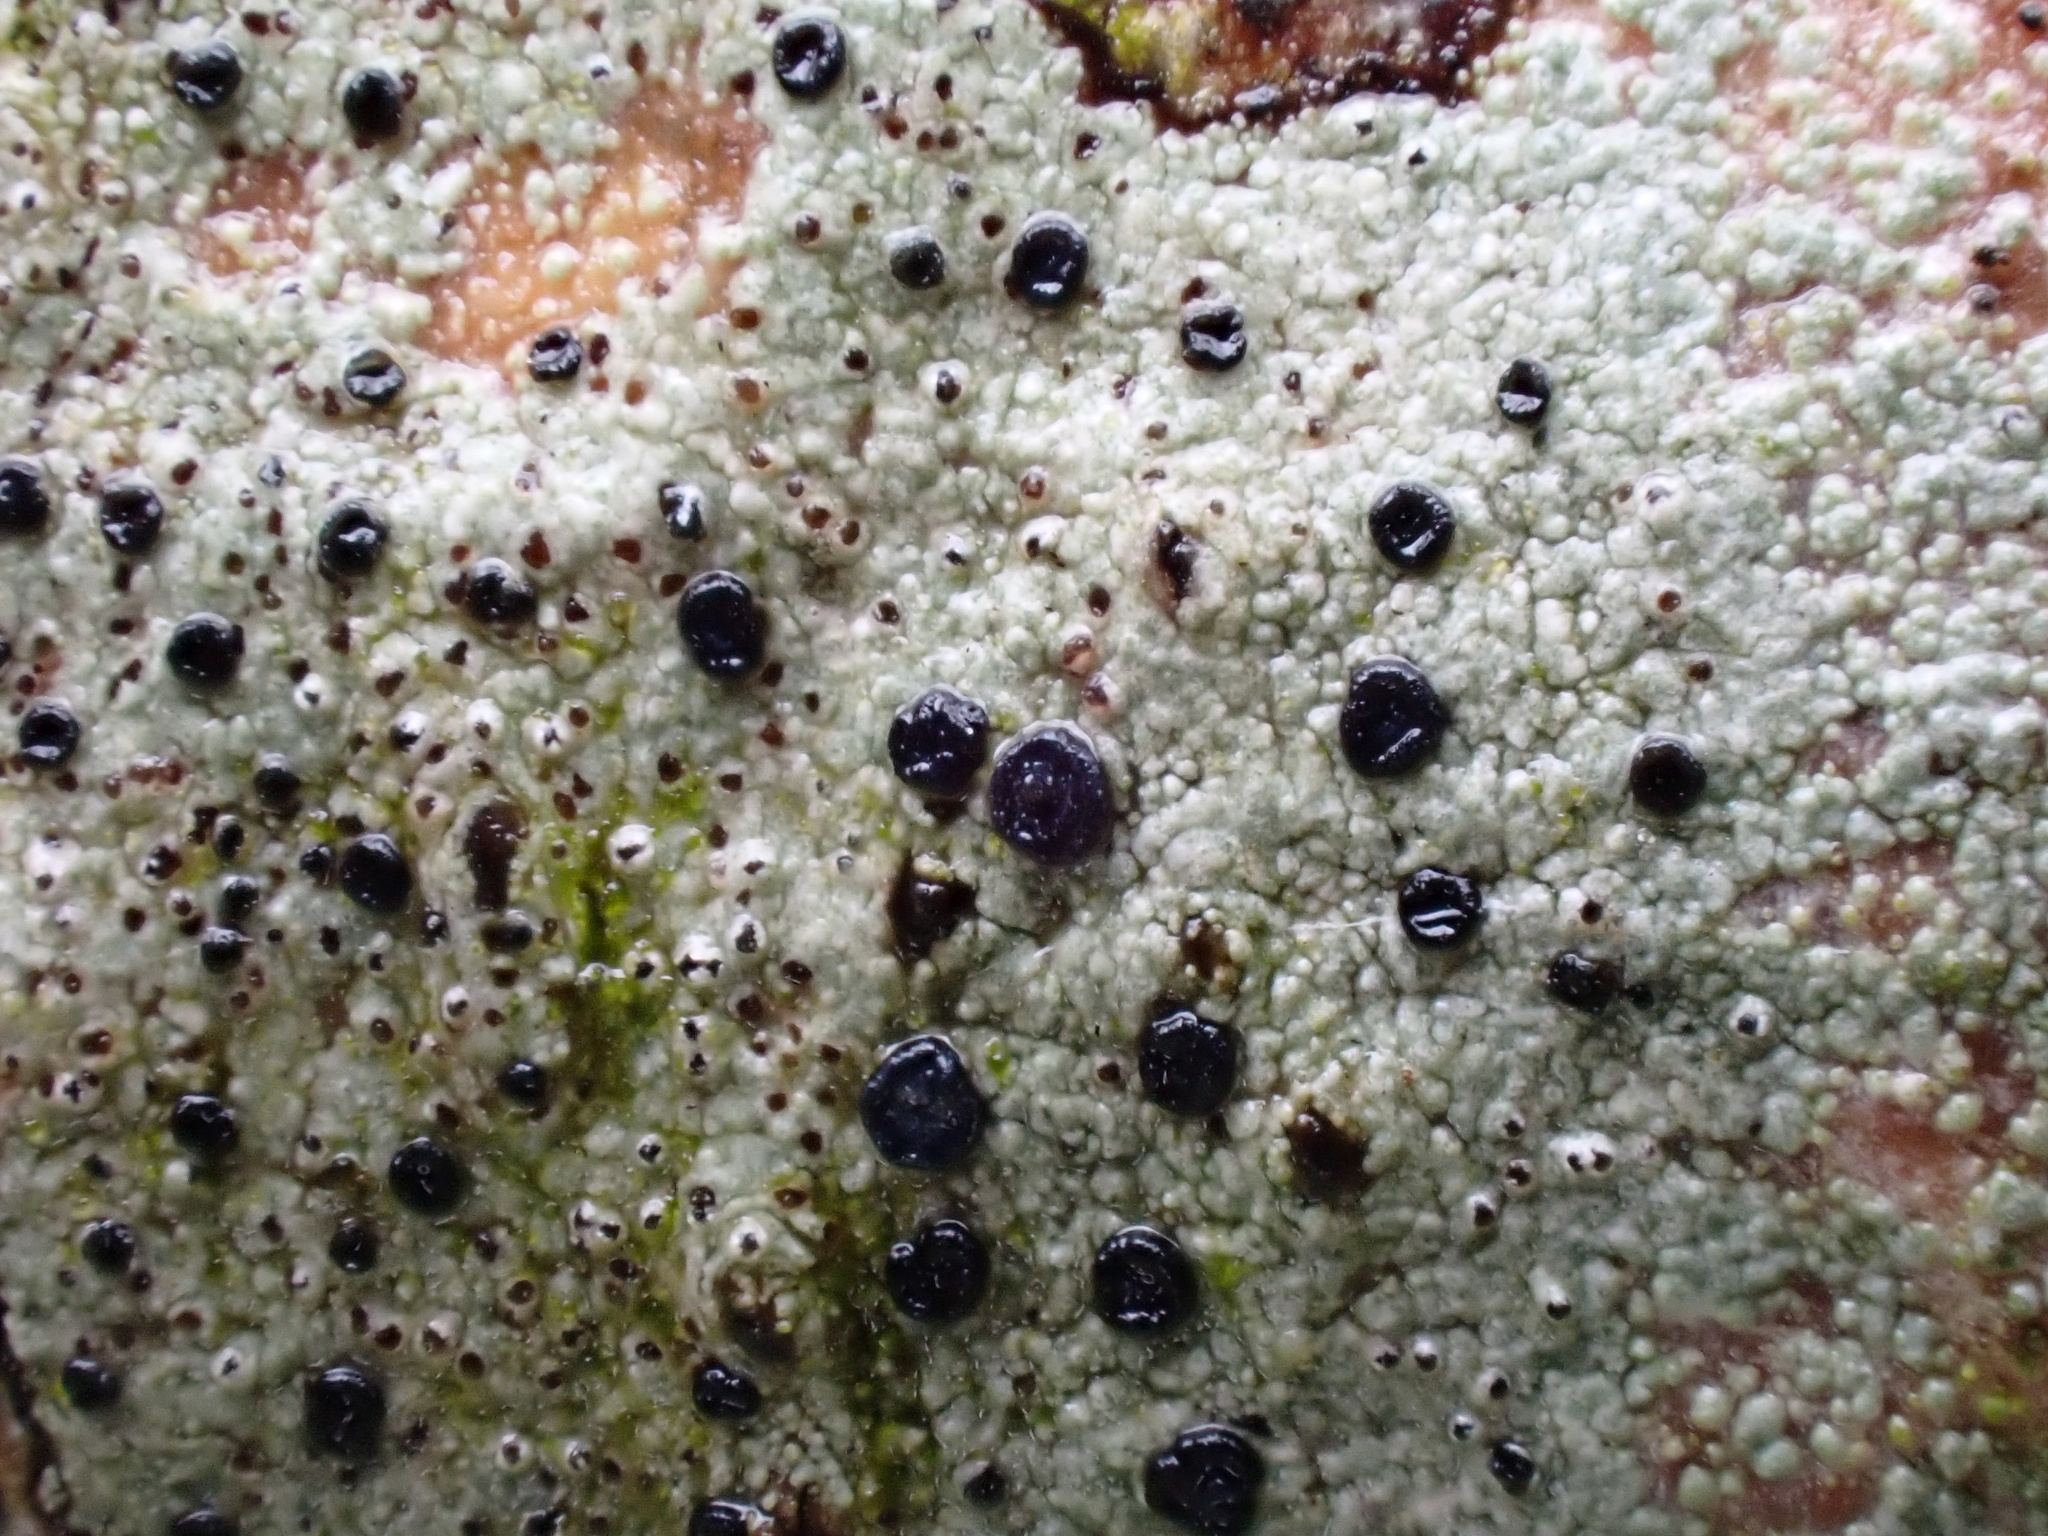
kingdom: Fungi
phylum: Ascomycota
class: Lecanoromycetes
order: Lecanorales
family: Lecanoraceae
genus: Lecidella
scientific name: Lecidella elaeochroma
